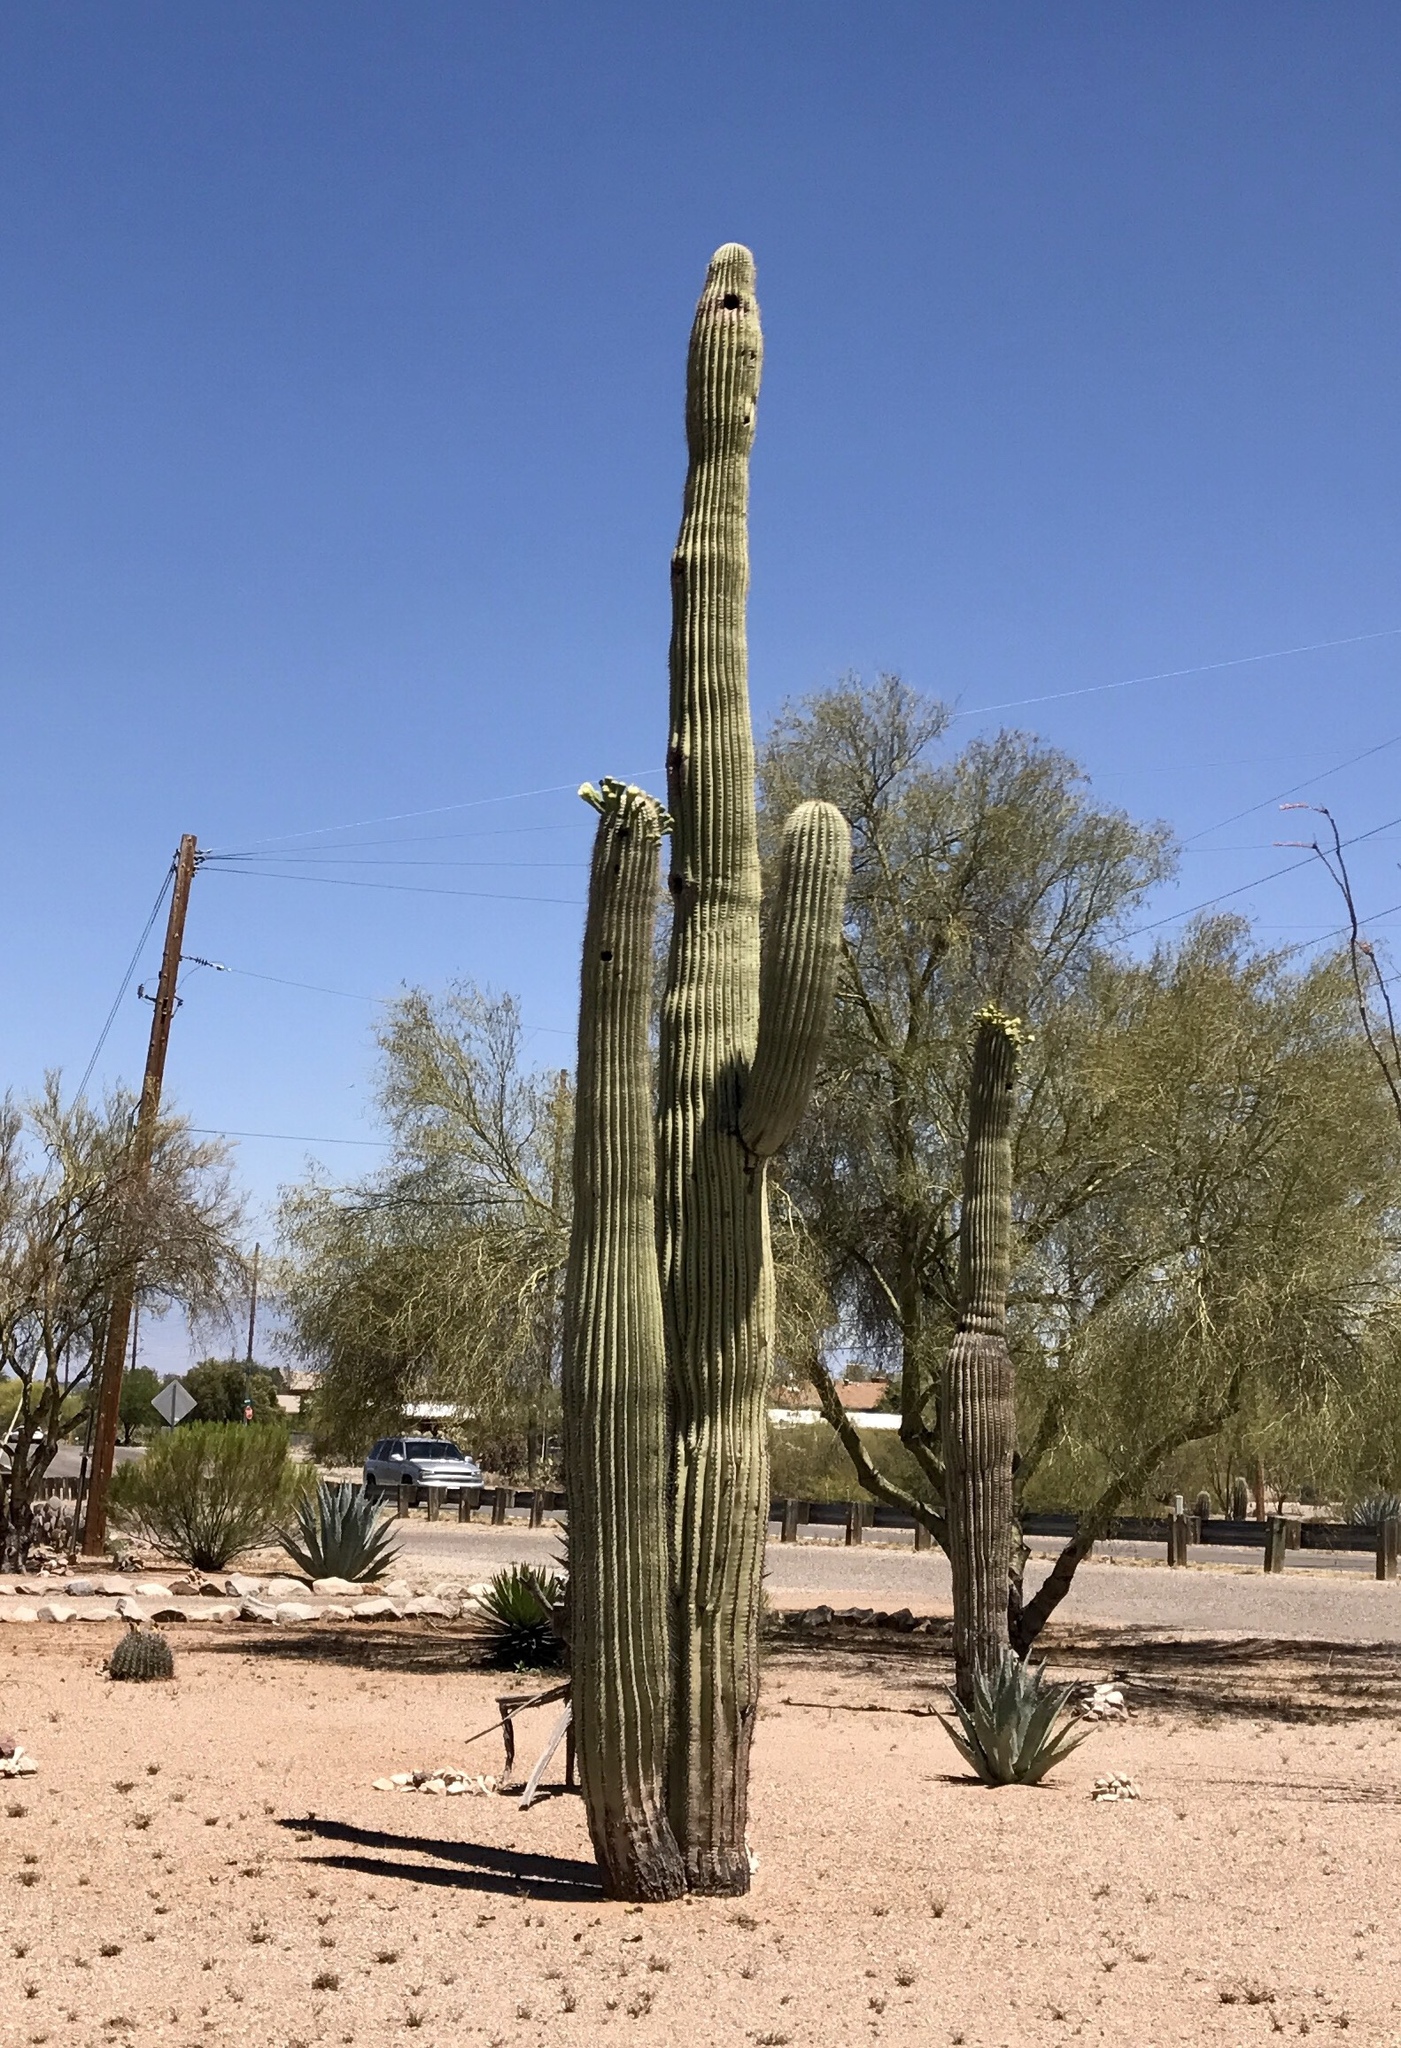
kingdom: Plantae
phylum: Tracheophyta
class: Magnoliopsida
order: Caryophyllales
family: Cactaceae
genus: Carnegiea
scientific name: Carnegiea gigantea
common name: Saguaro
